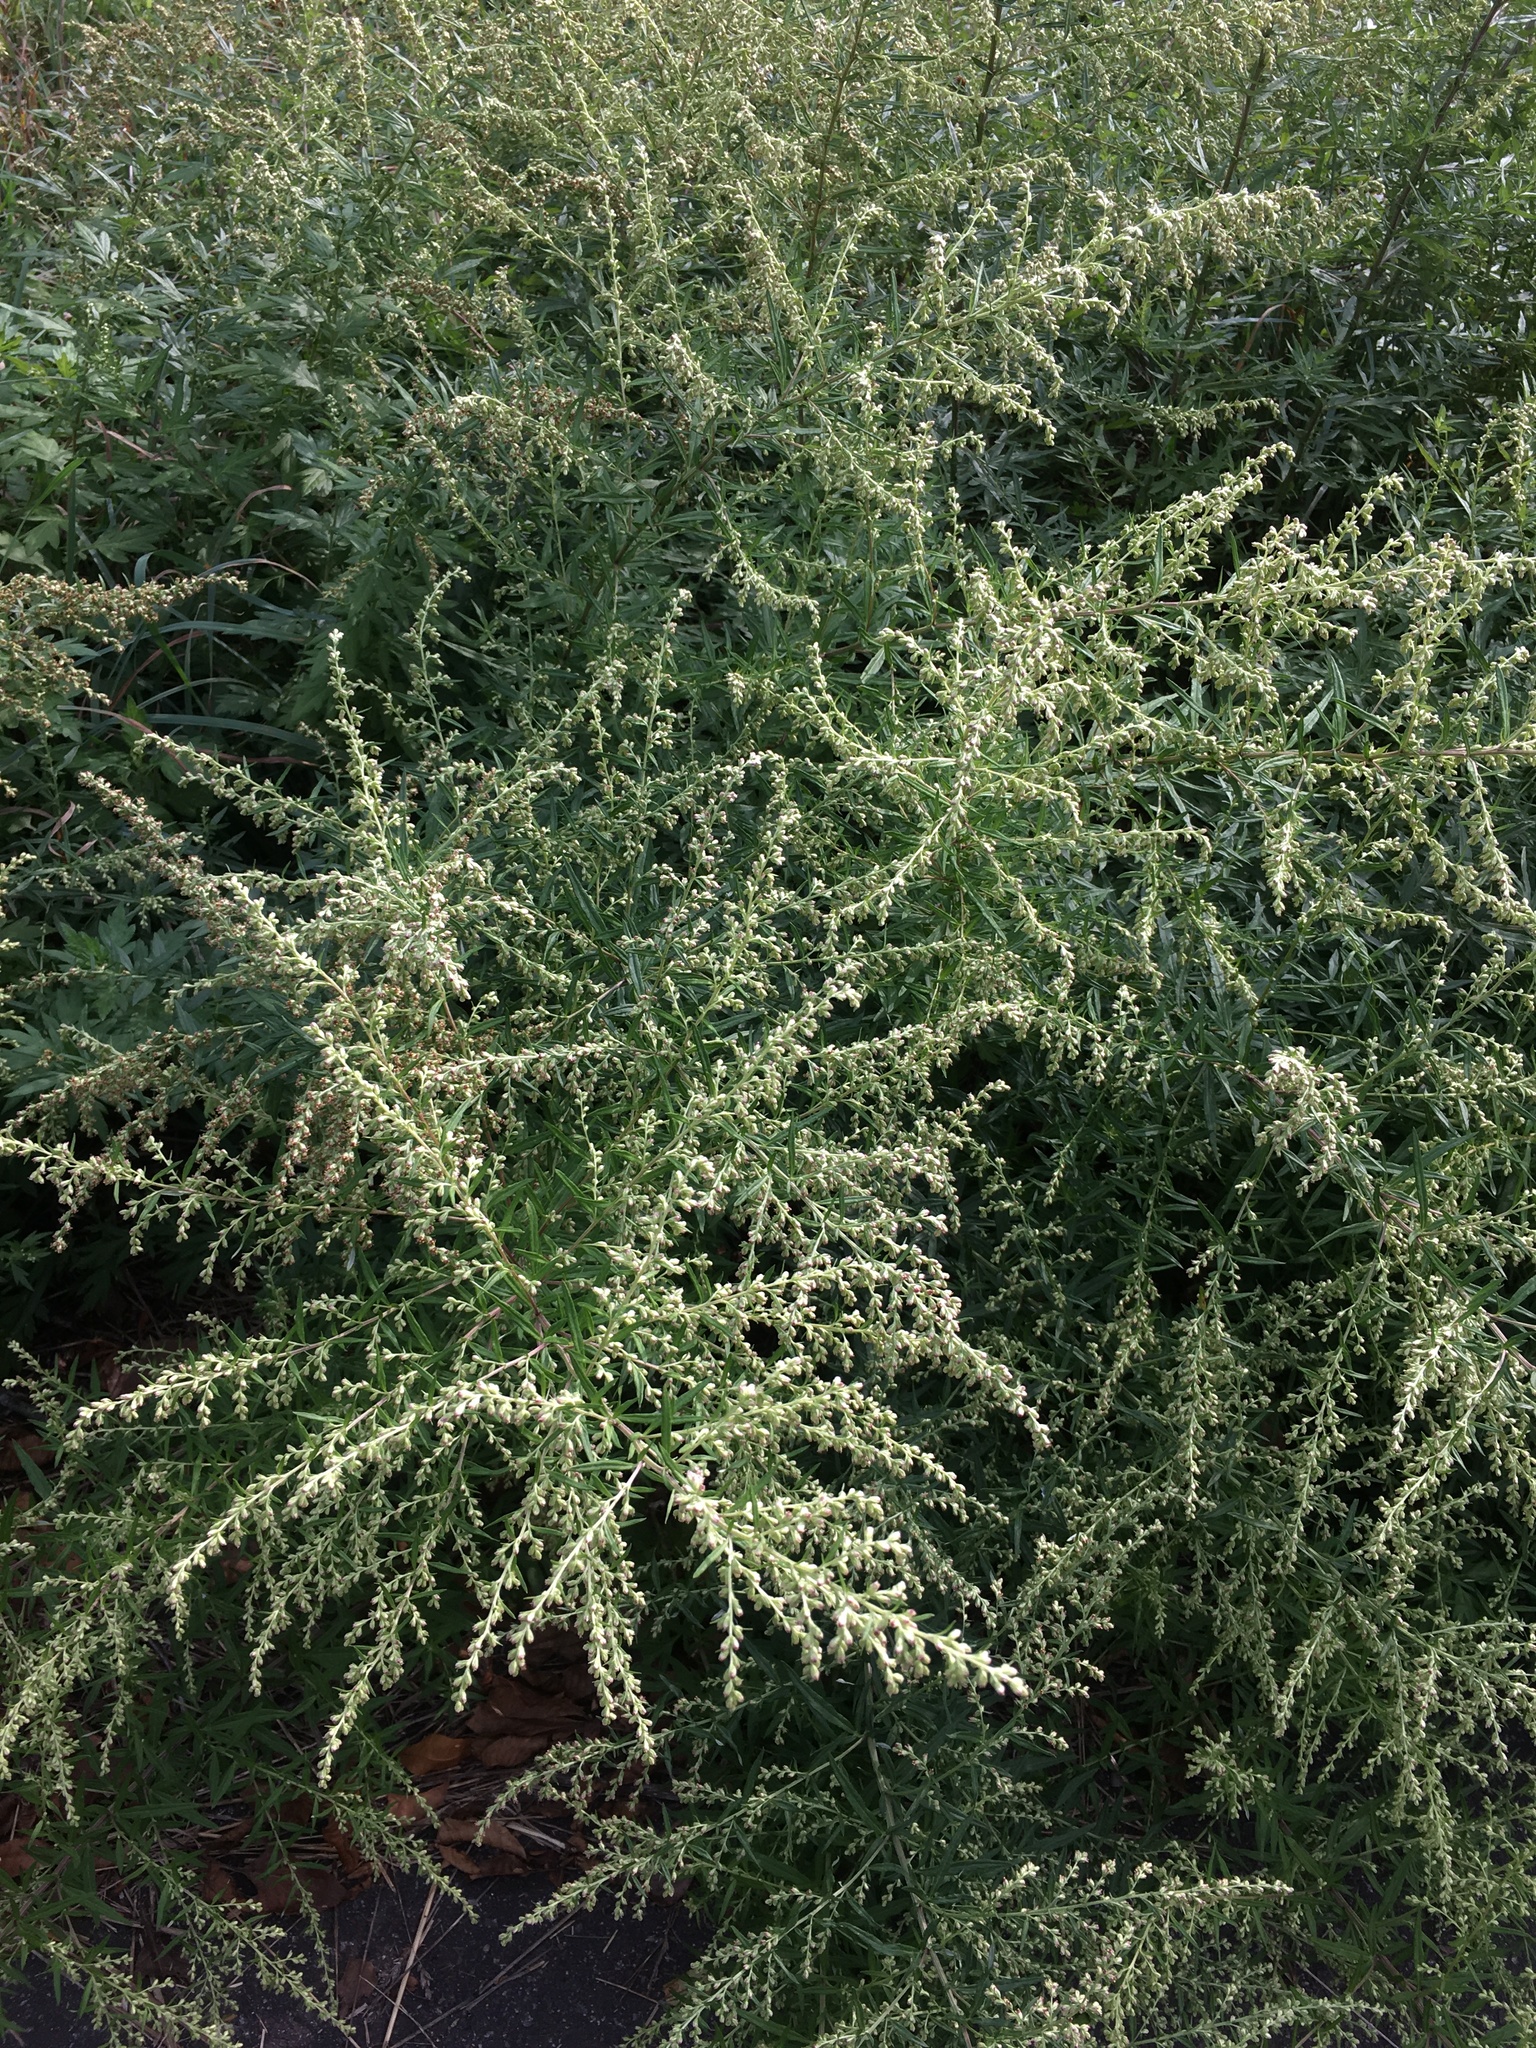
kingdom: Plantae
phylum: Tracheophyta
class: Magnoliopsida
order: Asterales
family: Asteraceae
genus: Artemisia
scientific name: Artemisia vulgaris
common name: Mugwort
